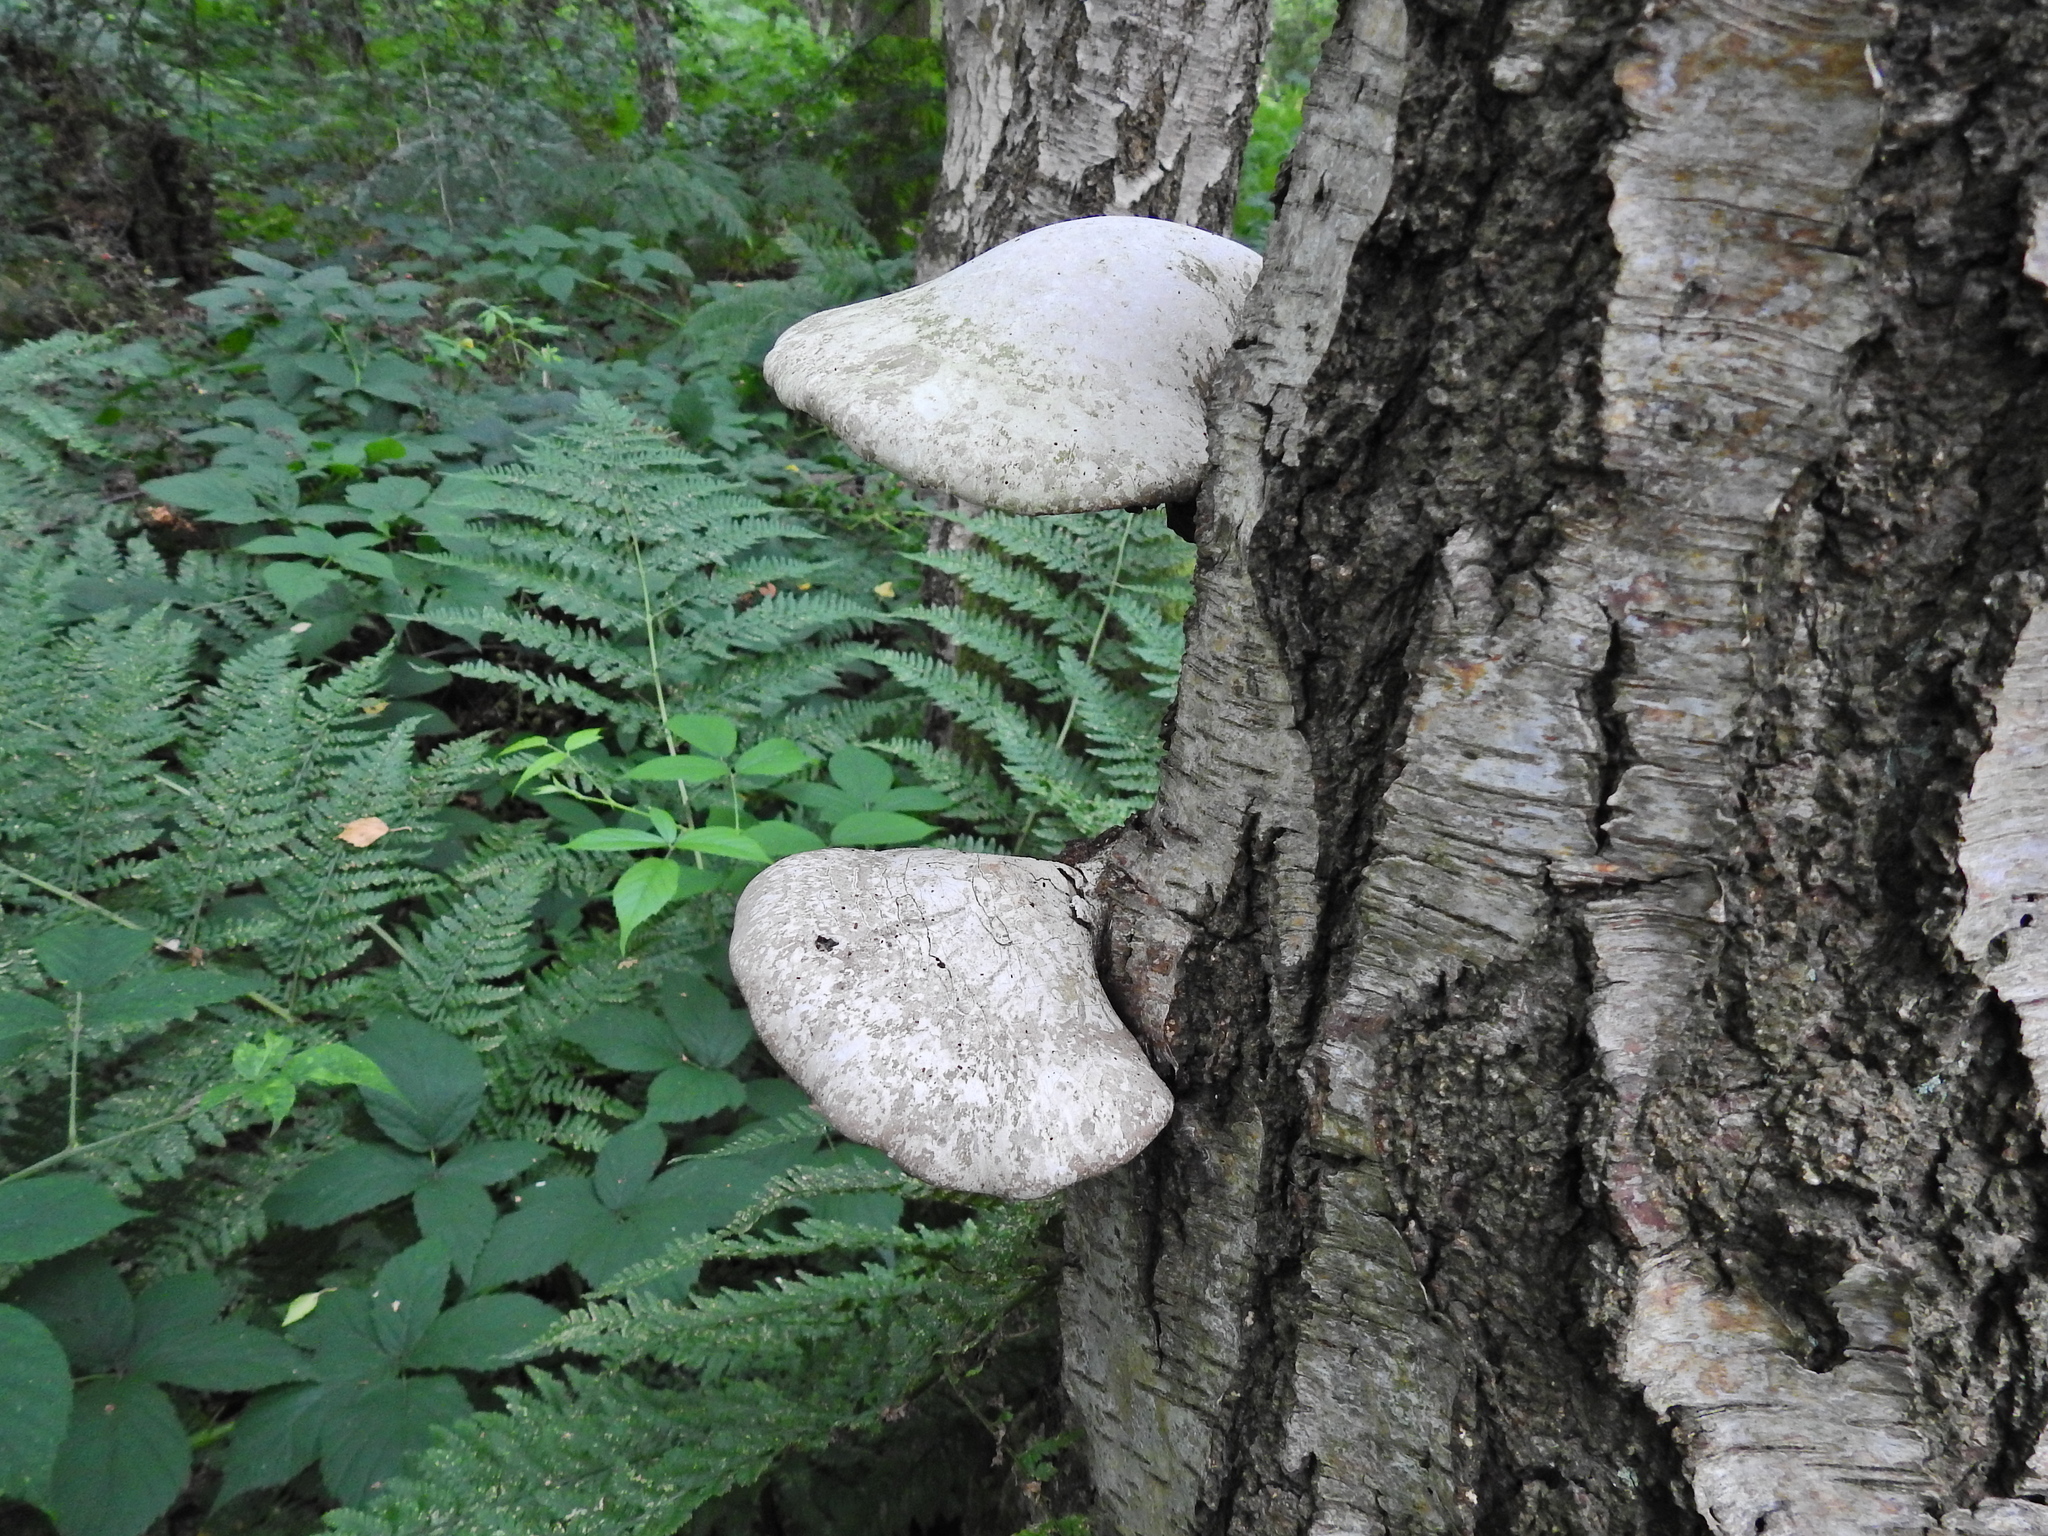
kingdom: Fungi
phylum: Basidiomycota
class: Agaricomycetes
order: Polyporales
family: Fomitopsidaceae
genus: Fomitopsis
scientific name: Fomitopsis betulina
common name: Birch polypore
